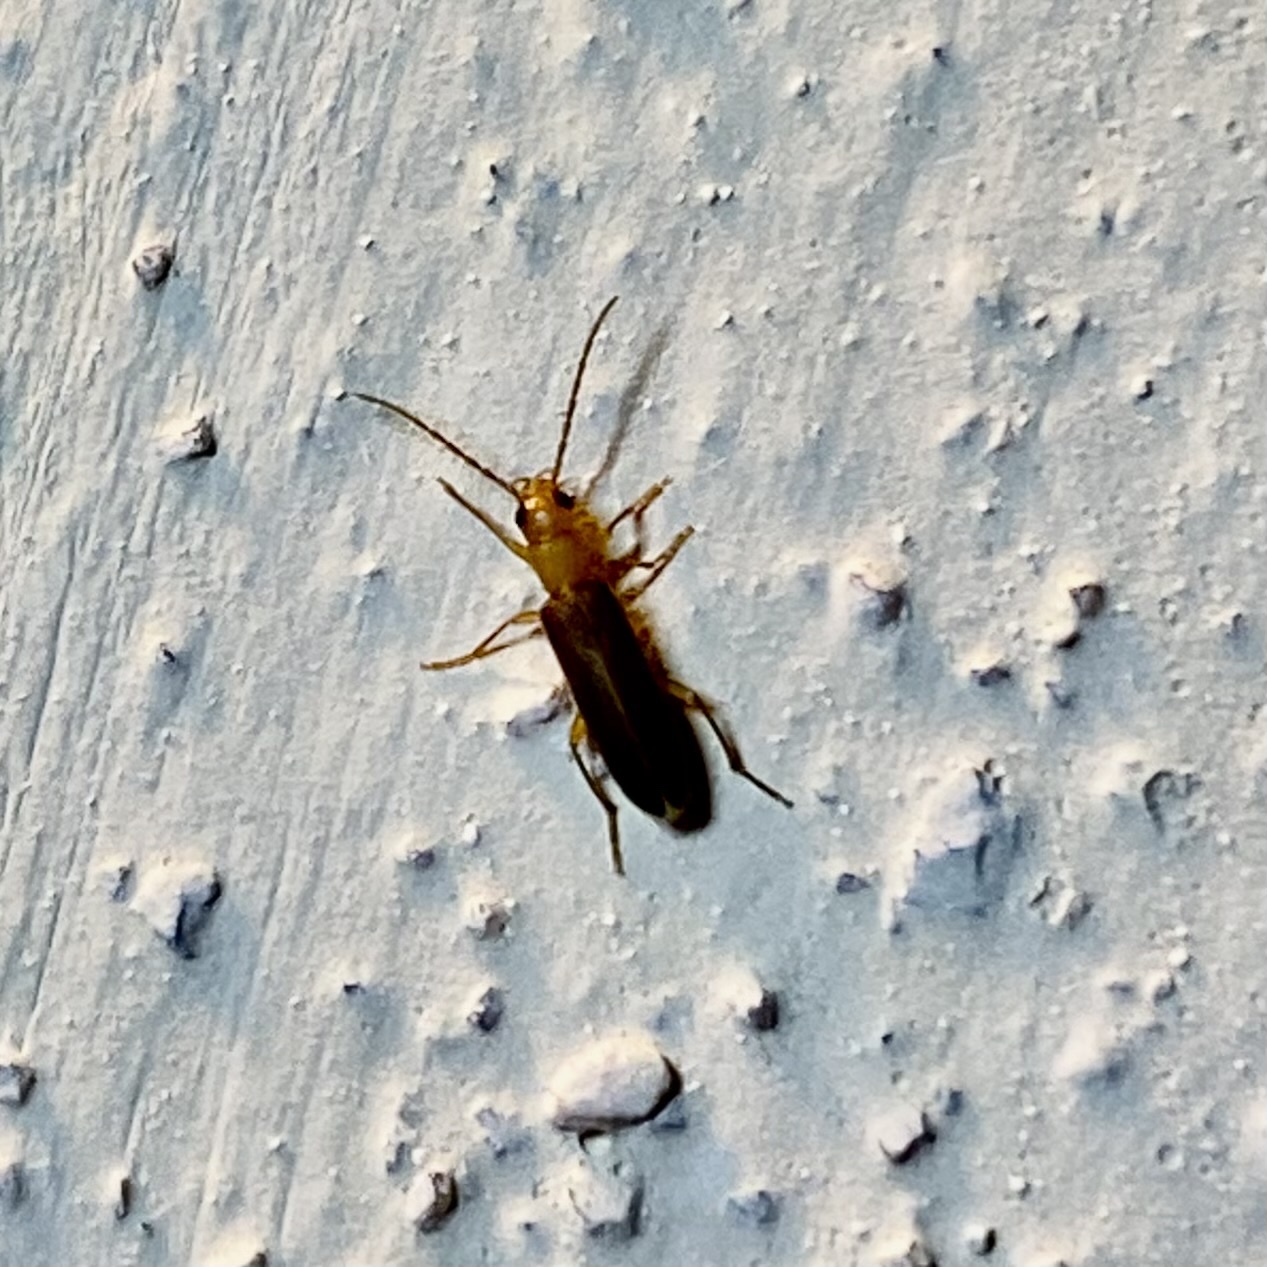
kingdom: Animalia
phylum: Arthropoda
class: Insecta
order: Coleoptera
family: Oedemeridae
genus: Xanthochroina
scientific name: Xanthochroina bicolor
